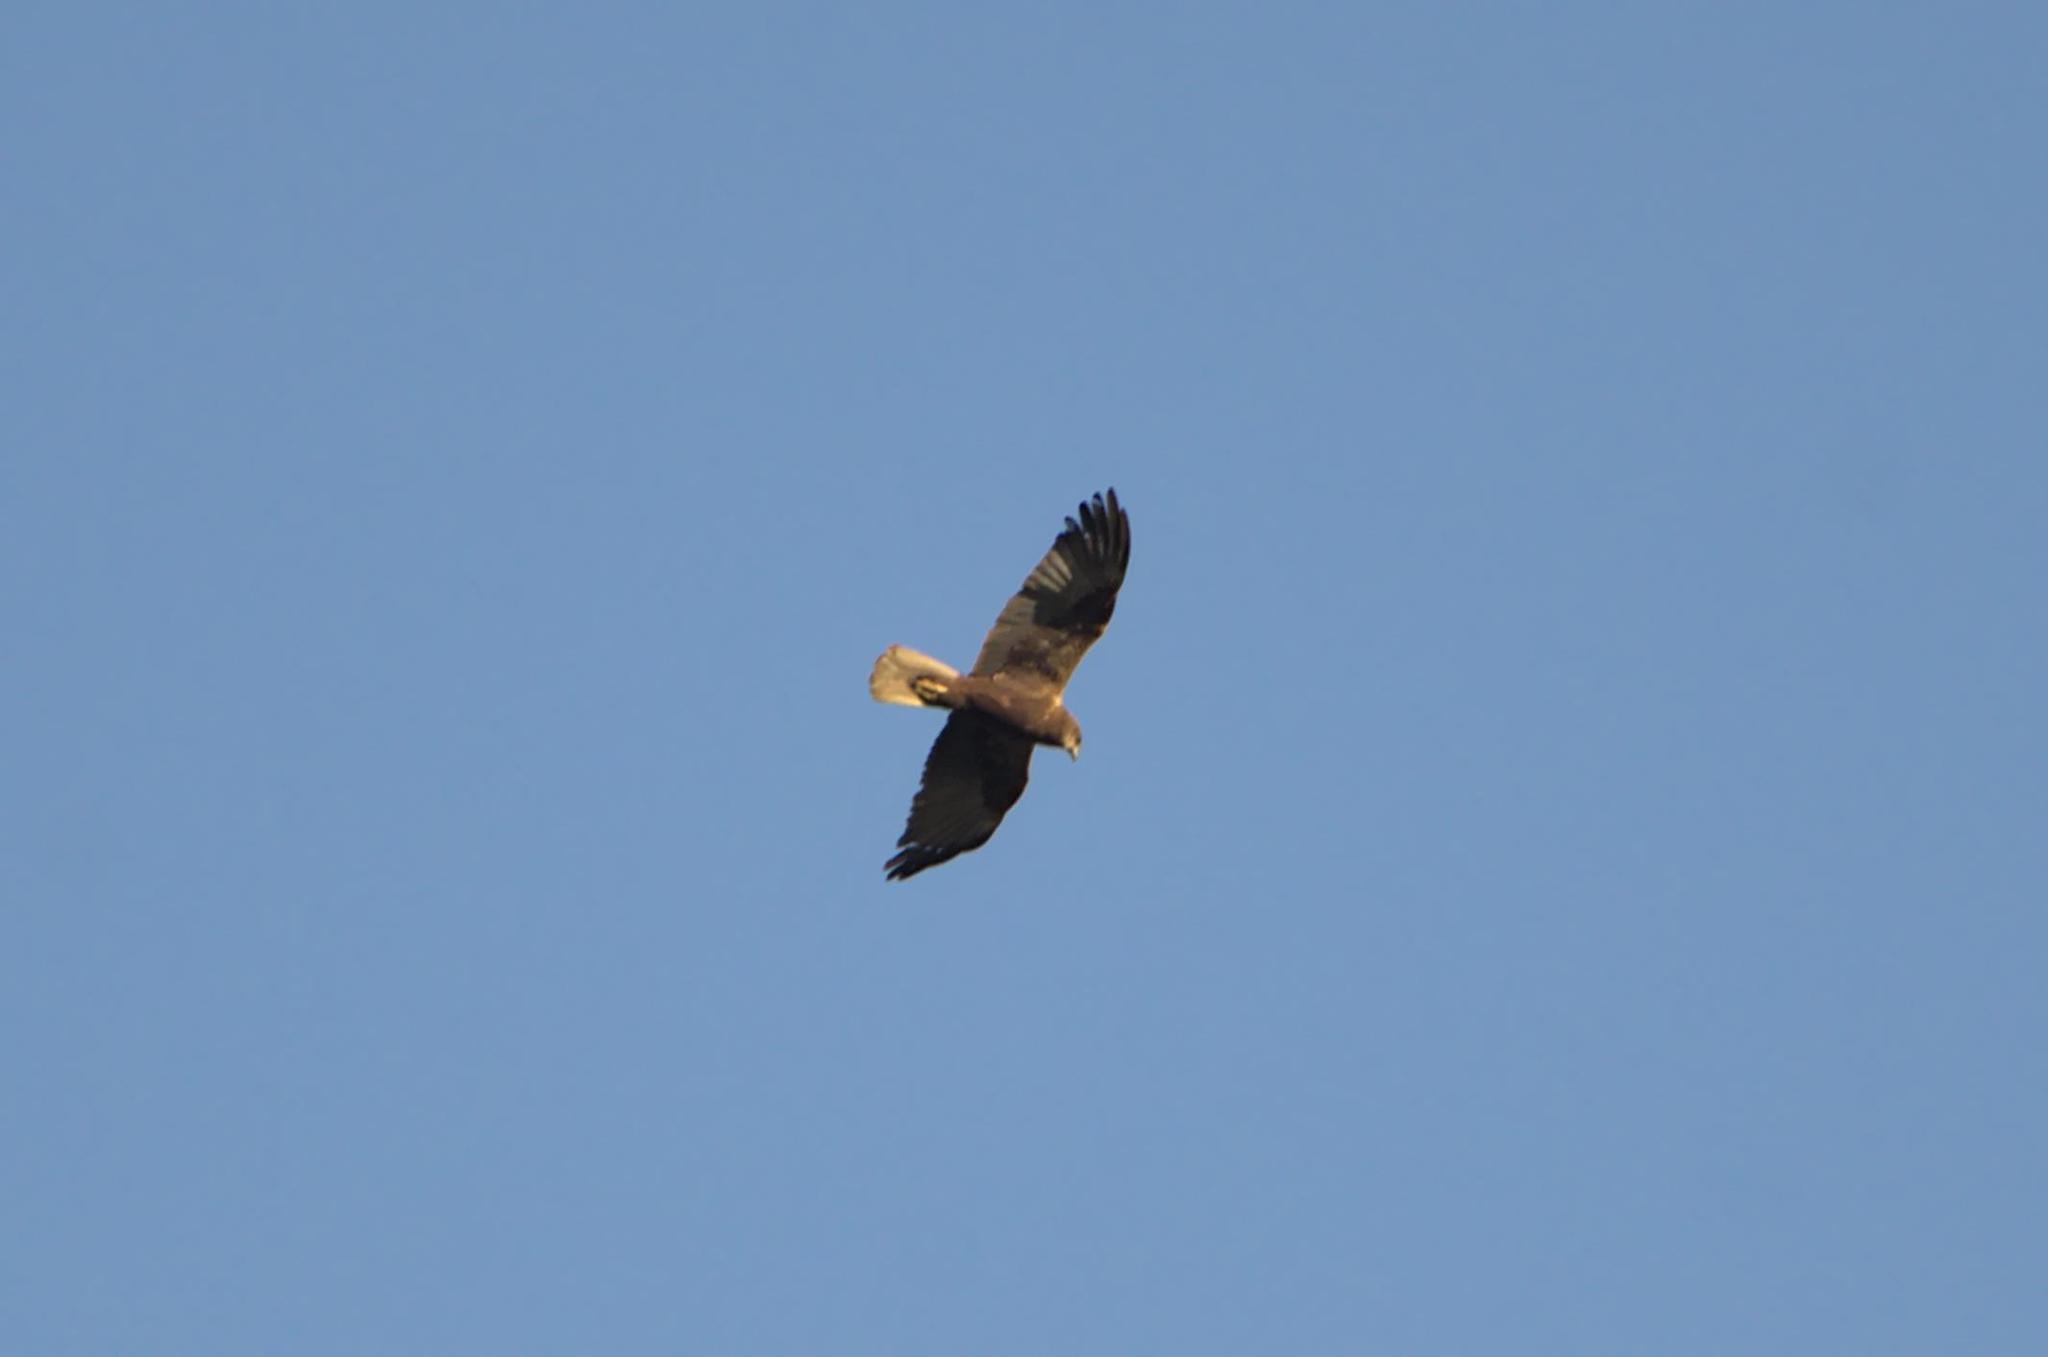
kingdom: Animalia
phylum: Chordata
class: Aves
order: Accipitriformes
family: Accipitridae
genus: Circus
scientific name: Circus aeruginosus
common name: Western marsh harrier
